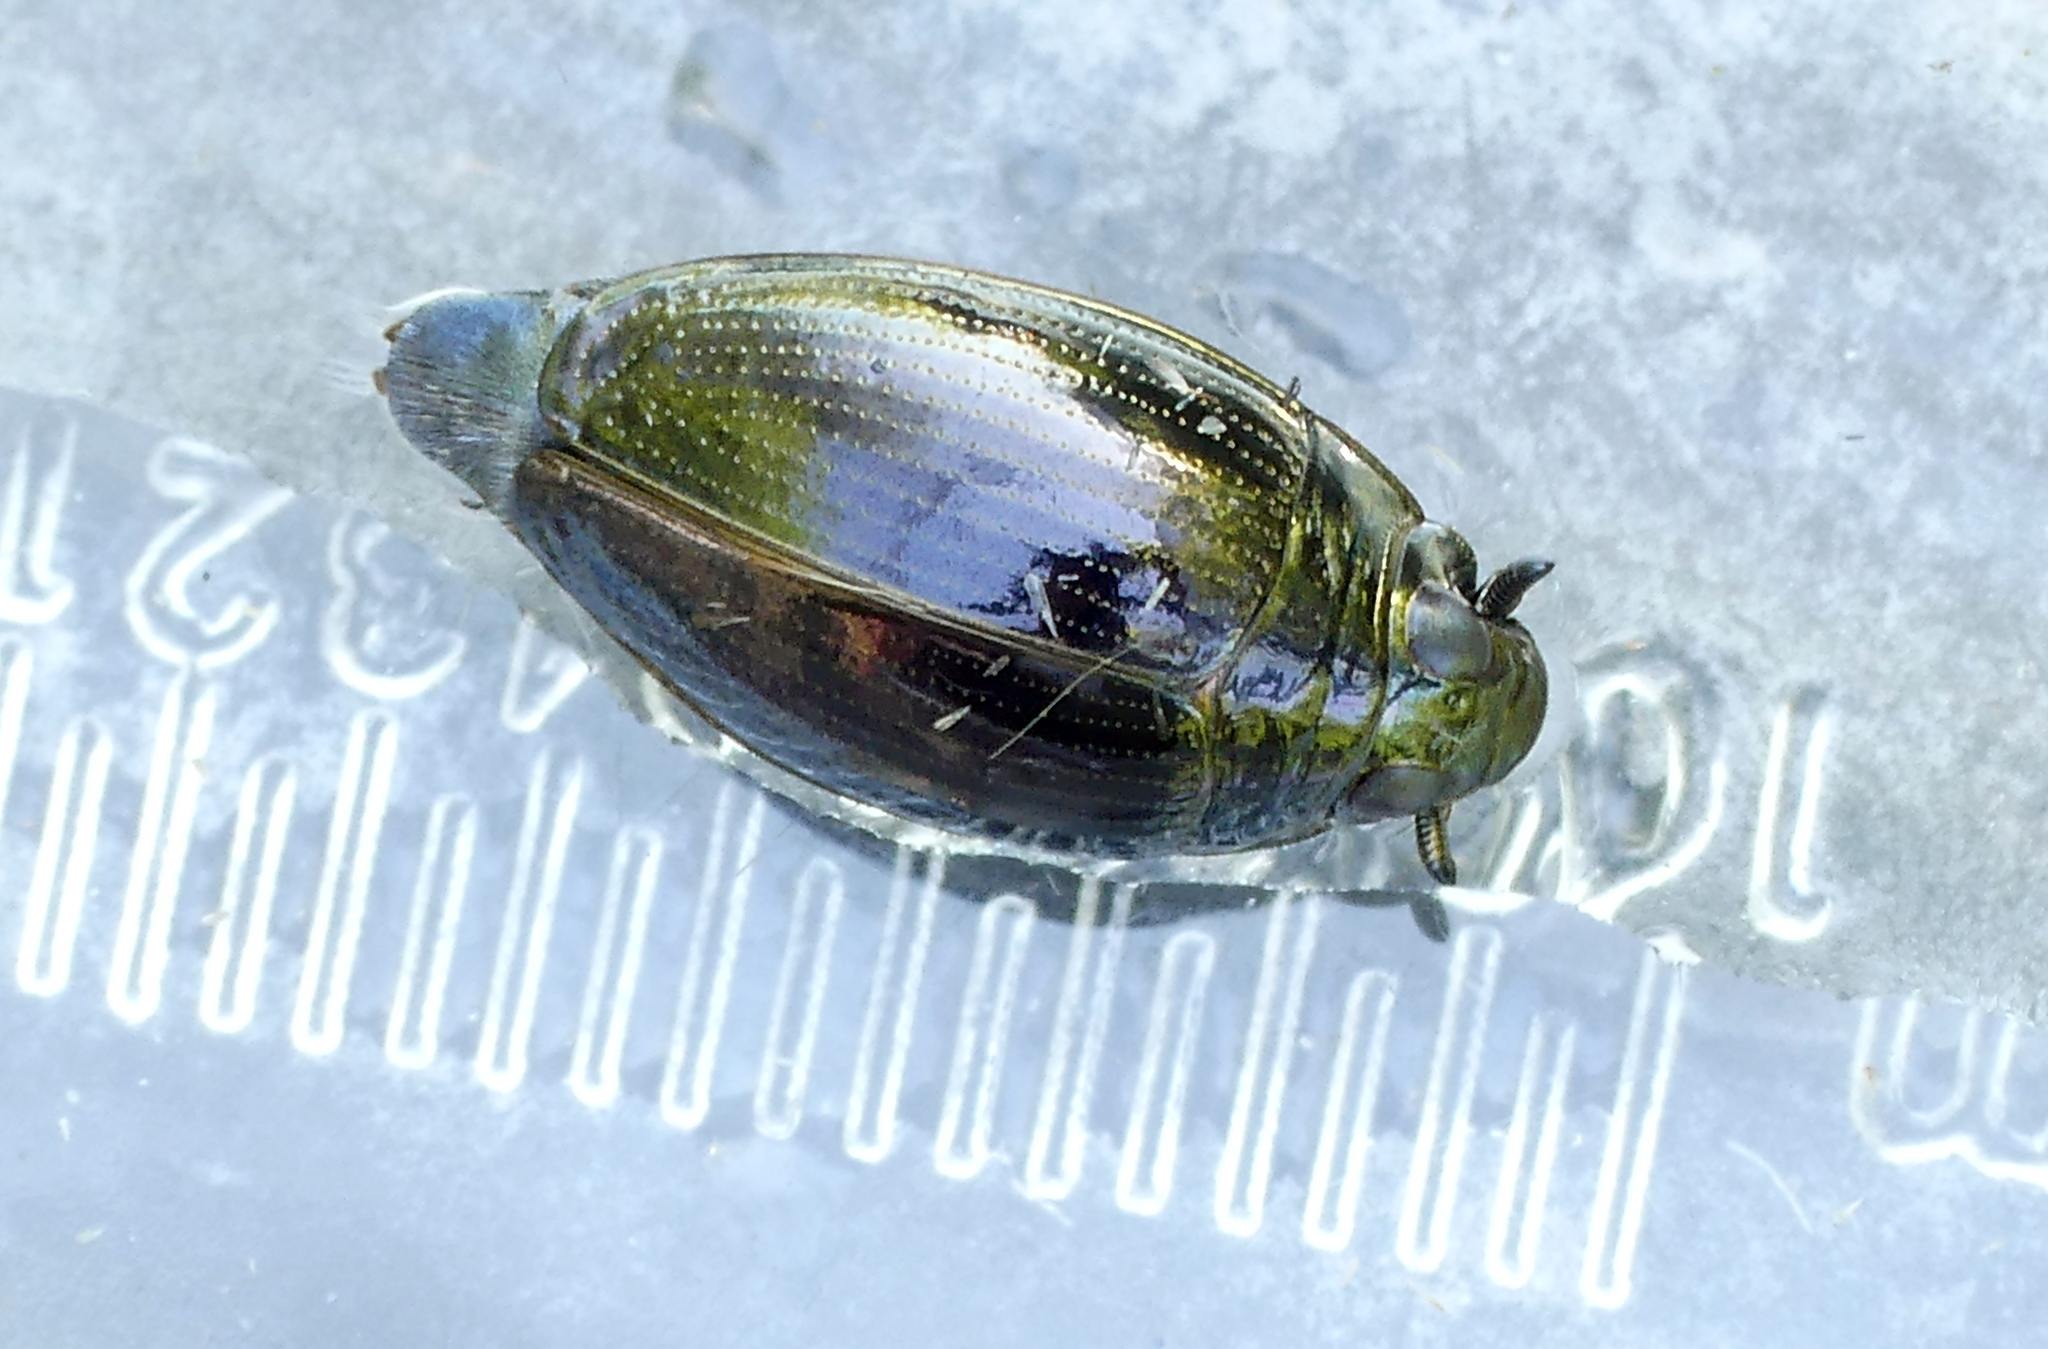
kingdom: Animalia
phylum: Arthropoda
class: Insecta
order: Coleoptera
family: Gyrinidae
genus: Gyrinus
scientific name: Gyrinus
